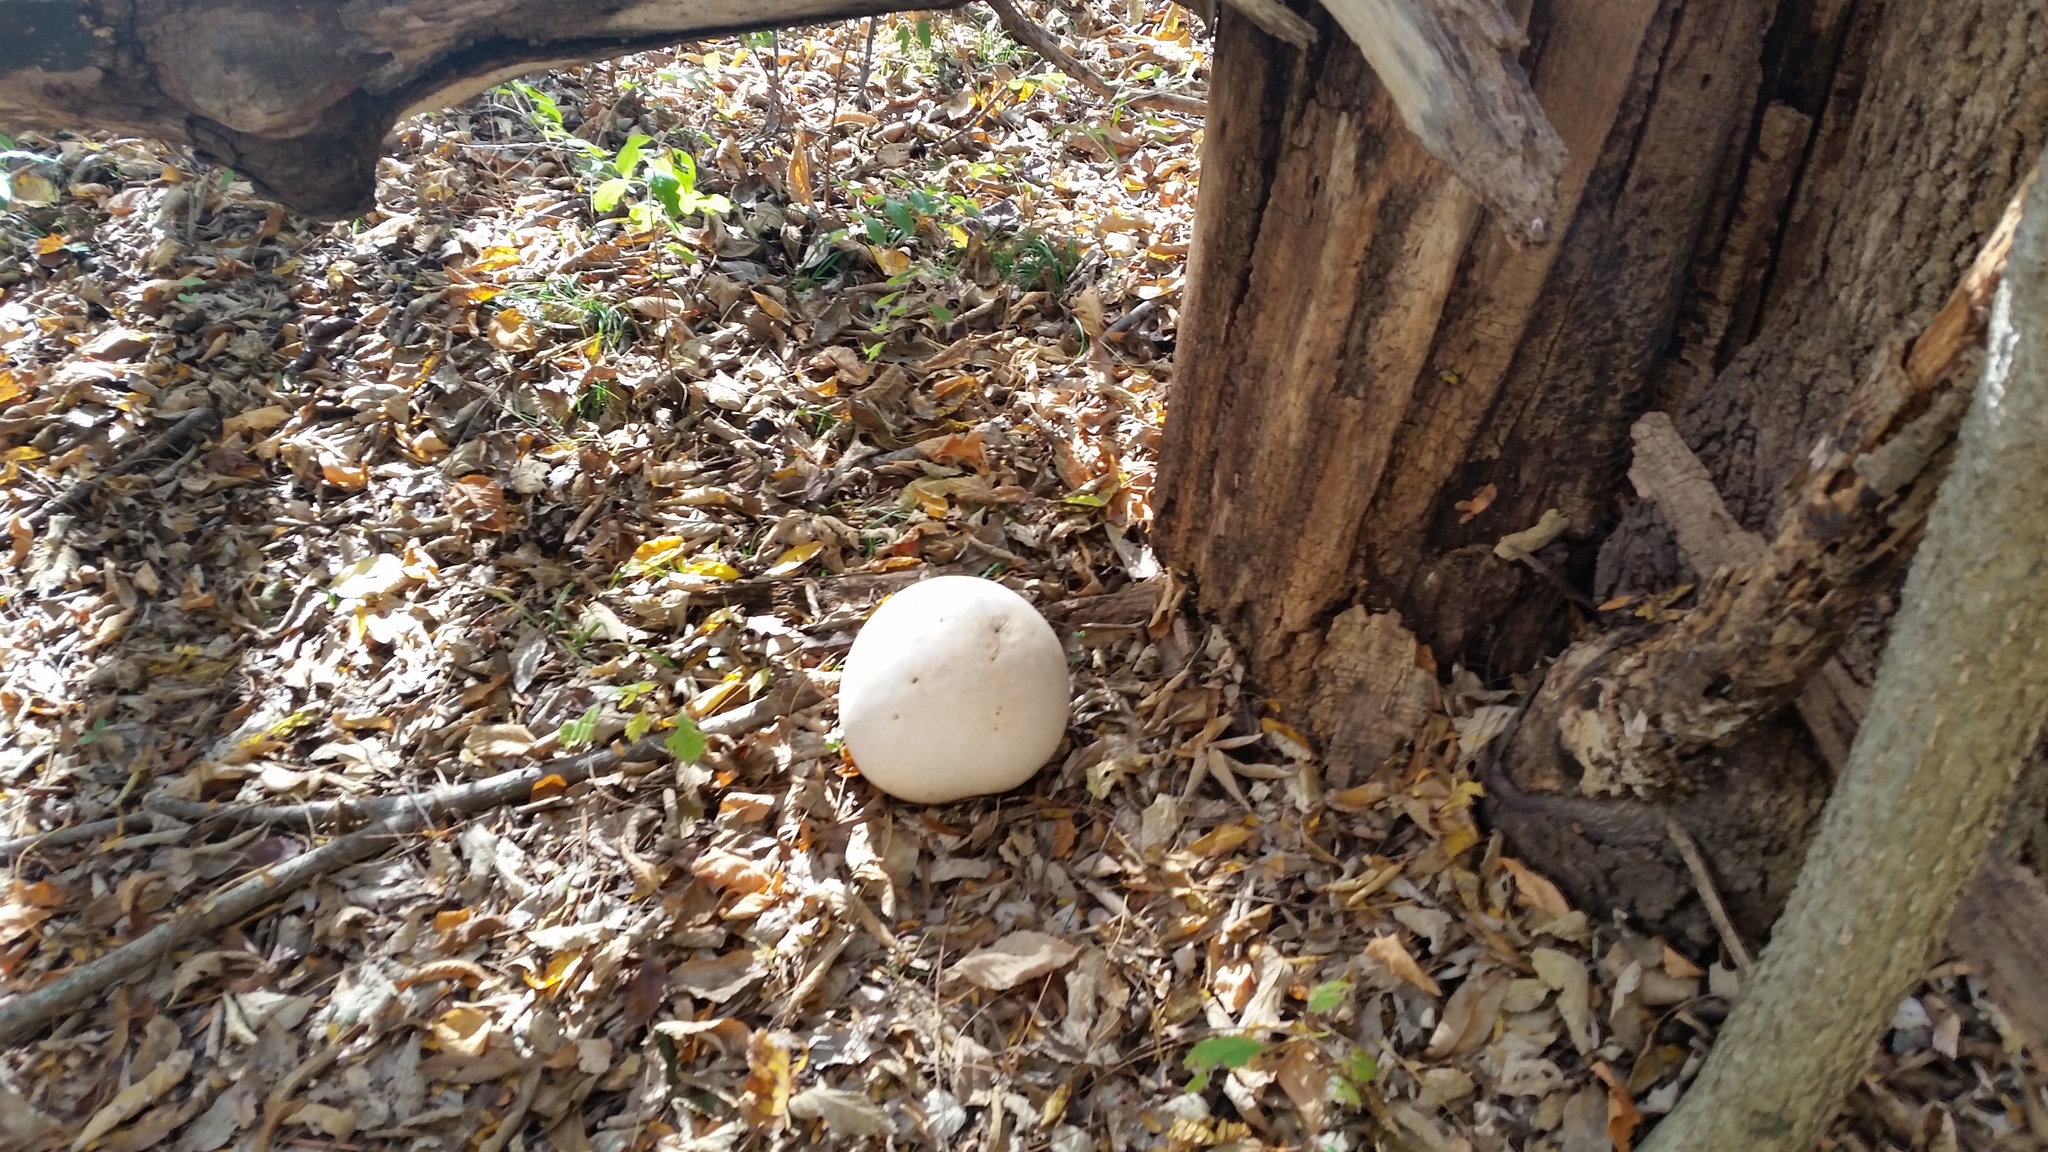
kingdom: Fungi
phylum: Basidiomycota
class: Agaricomycetes
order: Agaricales
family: Lycoperdaceae
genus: Calvatia
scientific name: Calvatia gigantea
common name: Giant puffball
